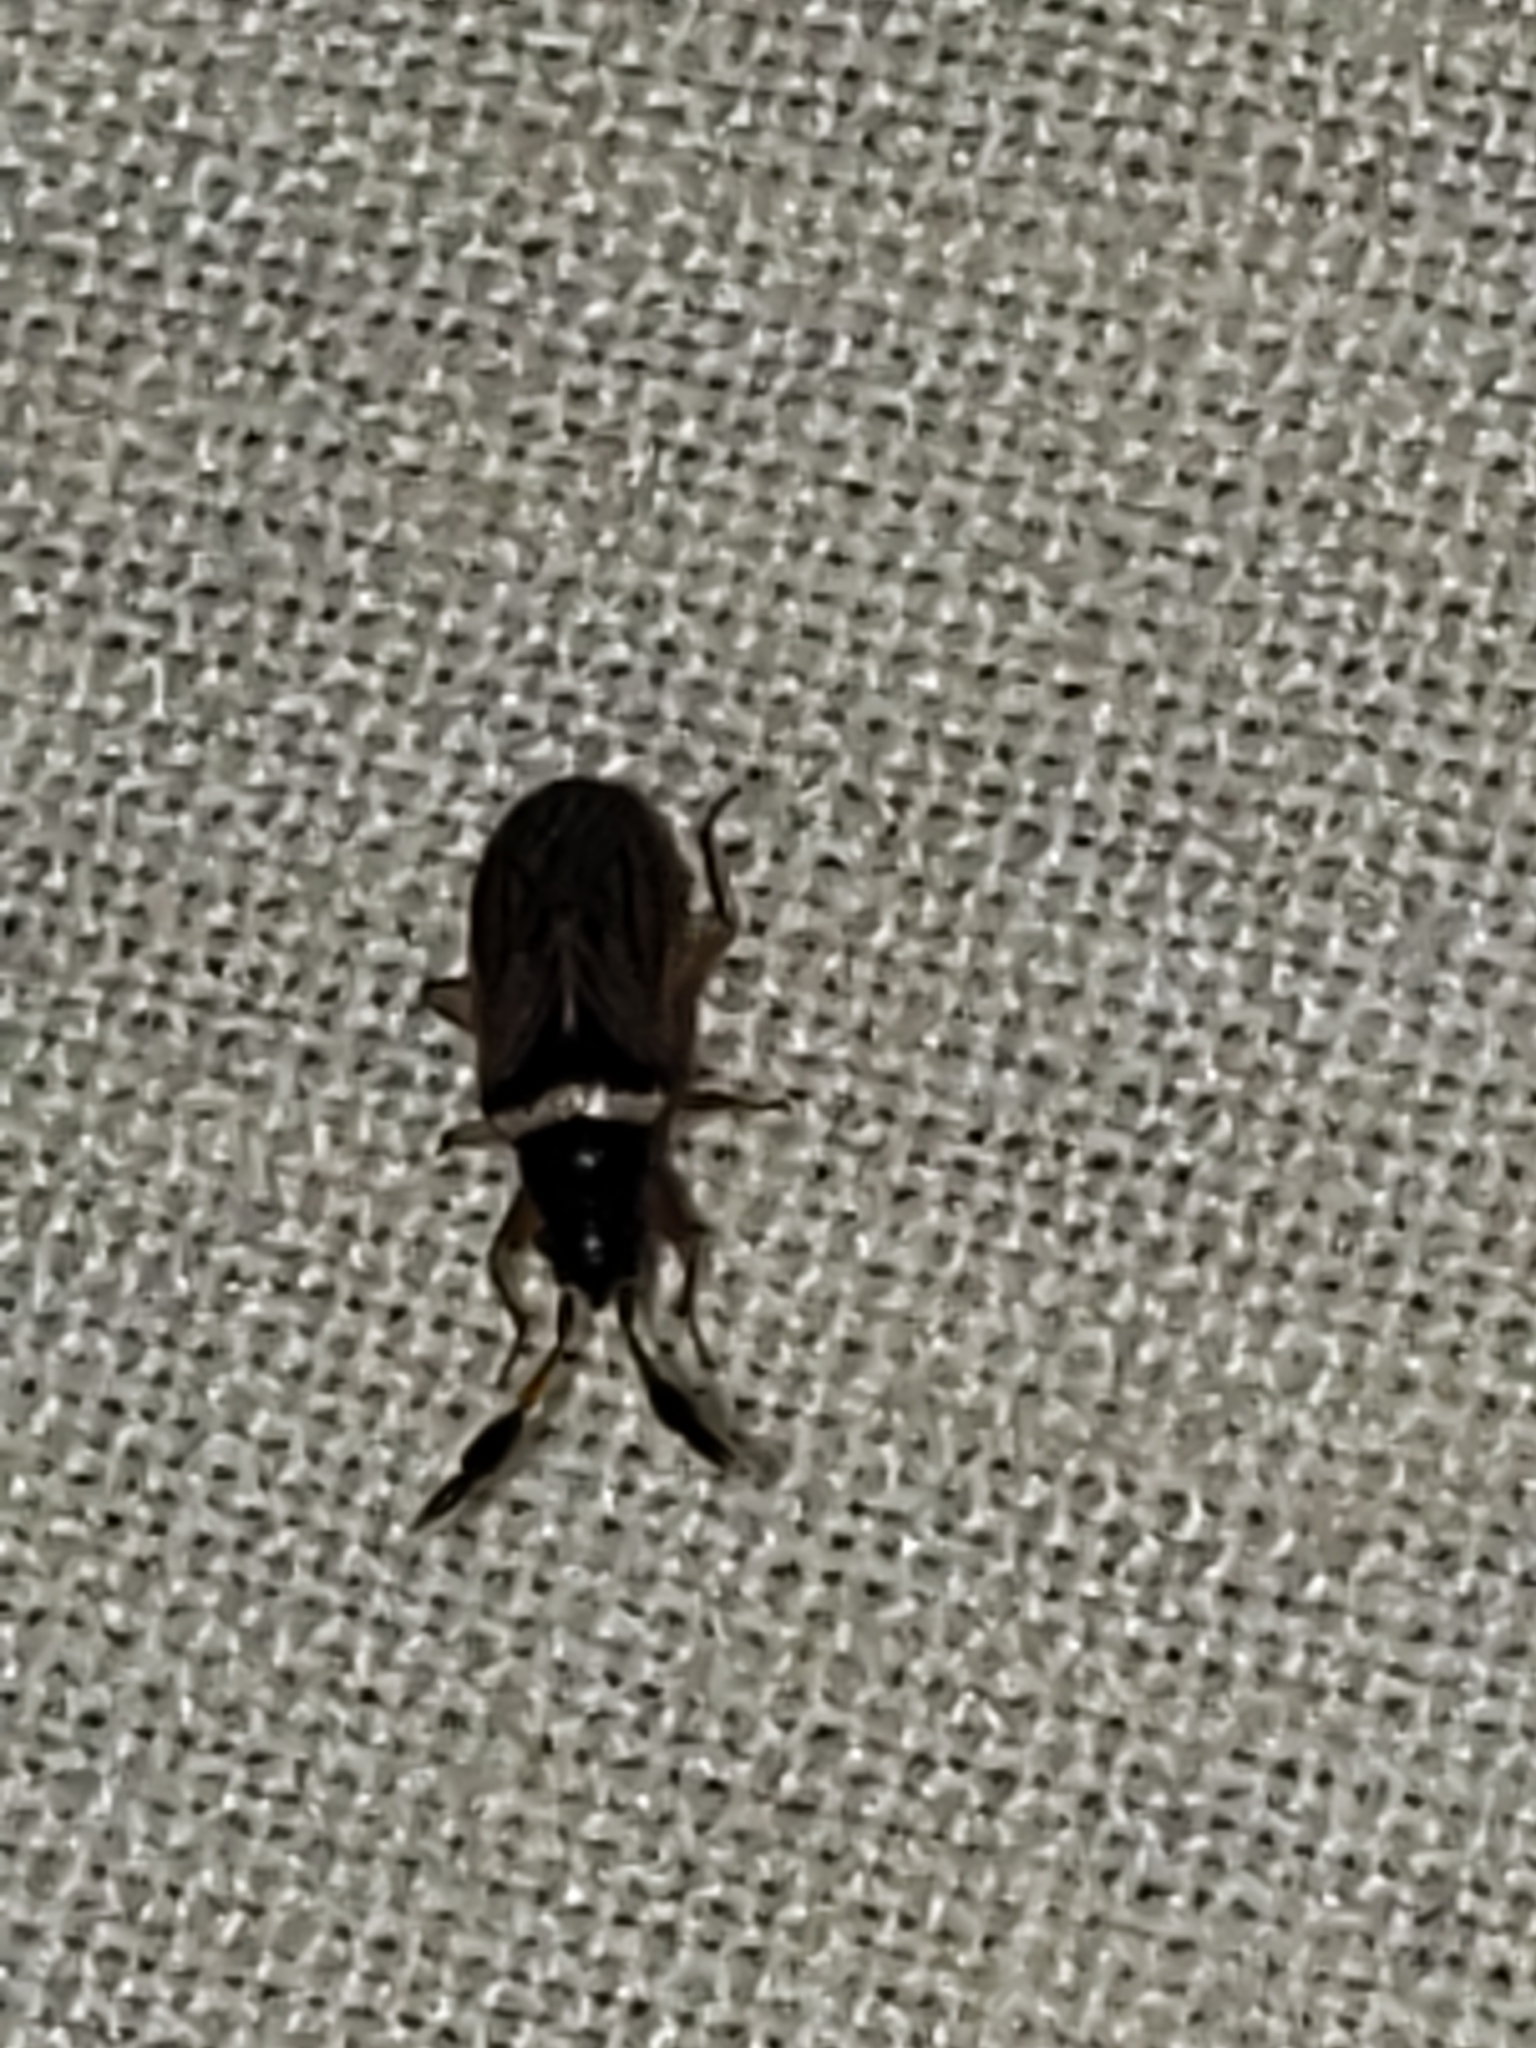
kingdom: Animalia
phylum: Arthropoda
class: Insecta
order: Hemiptera
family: Rhyparochromidae
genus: Ptochiomera
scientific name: Ptochiomera nodosa
